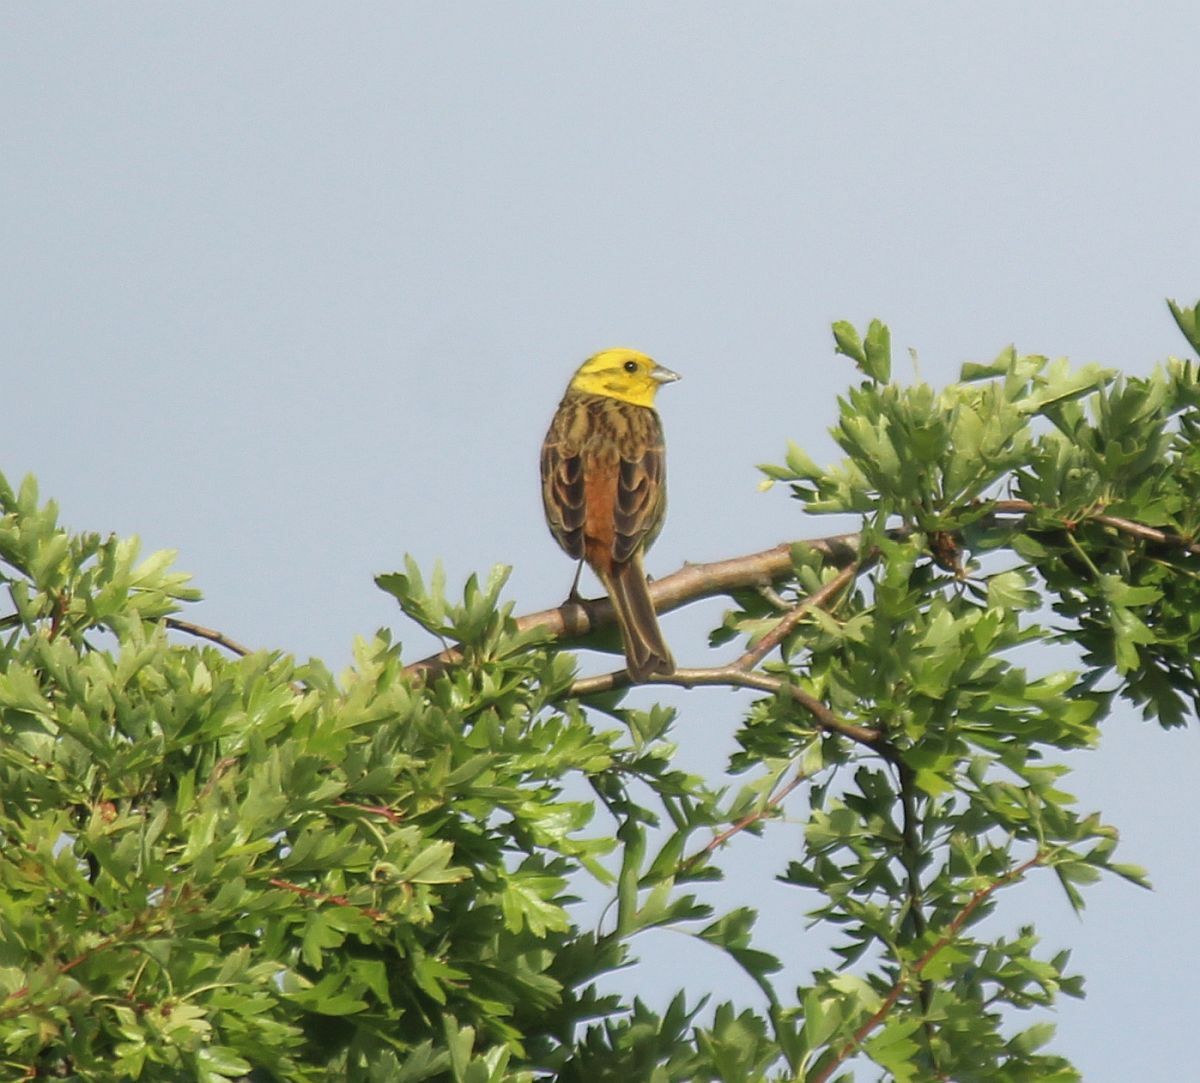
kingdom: Animalia
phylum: Chordata
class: Aves
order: Passeriformes
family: Emberizidae
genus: Emberiza
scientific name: Emberiza citrinella
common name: Yellowhammer
